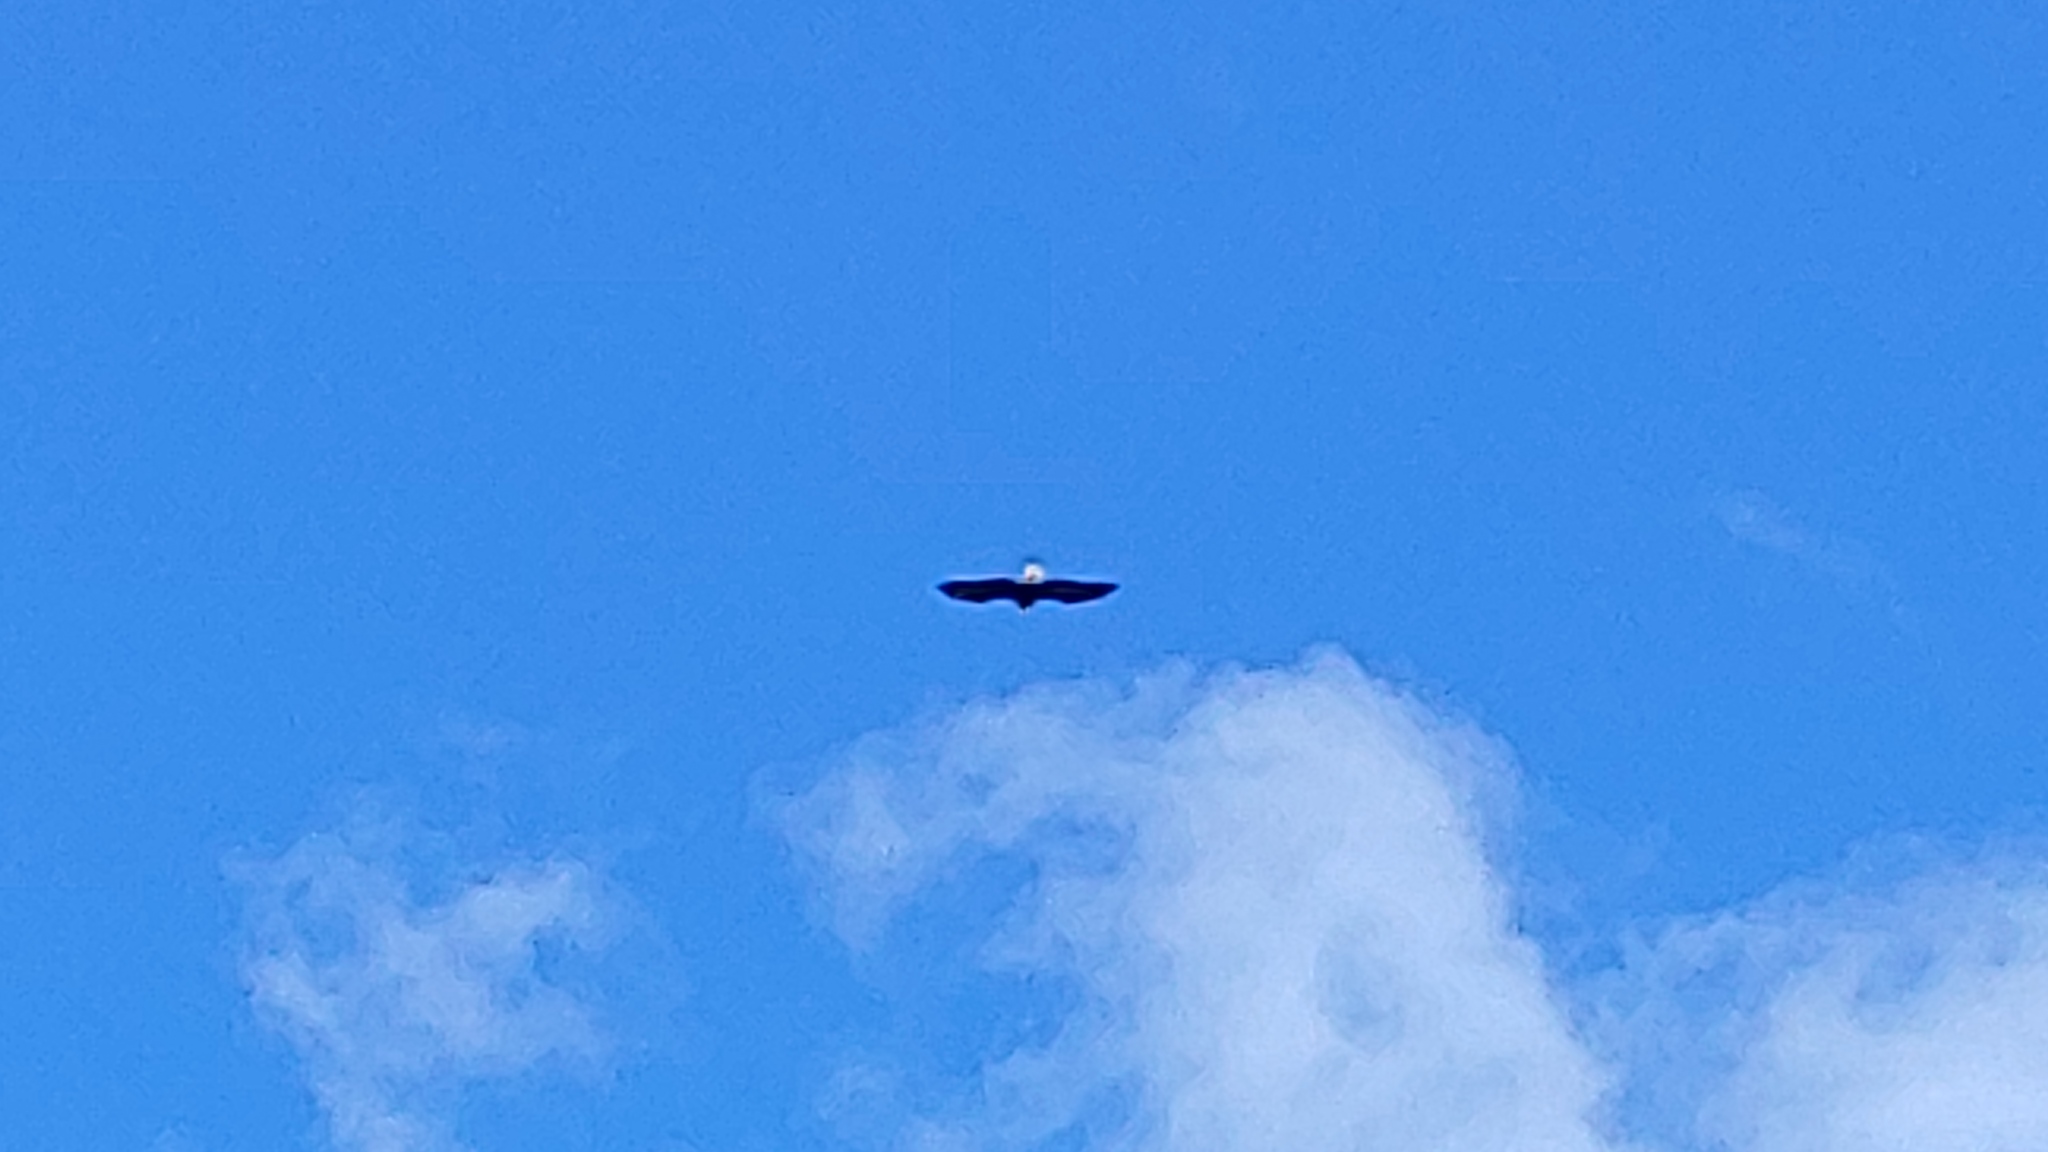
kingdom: Animalia
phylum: Chordata
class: Aves
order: Accipitriformes
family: Accipitridae
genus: Haliaeetus
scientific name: Haliaeetus leucocephalus
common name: Bald eagle
